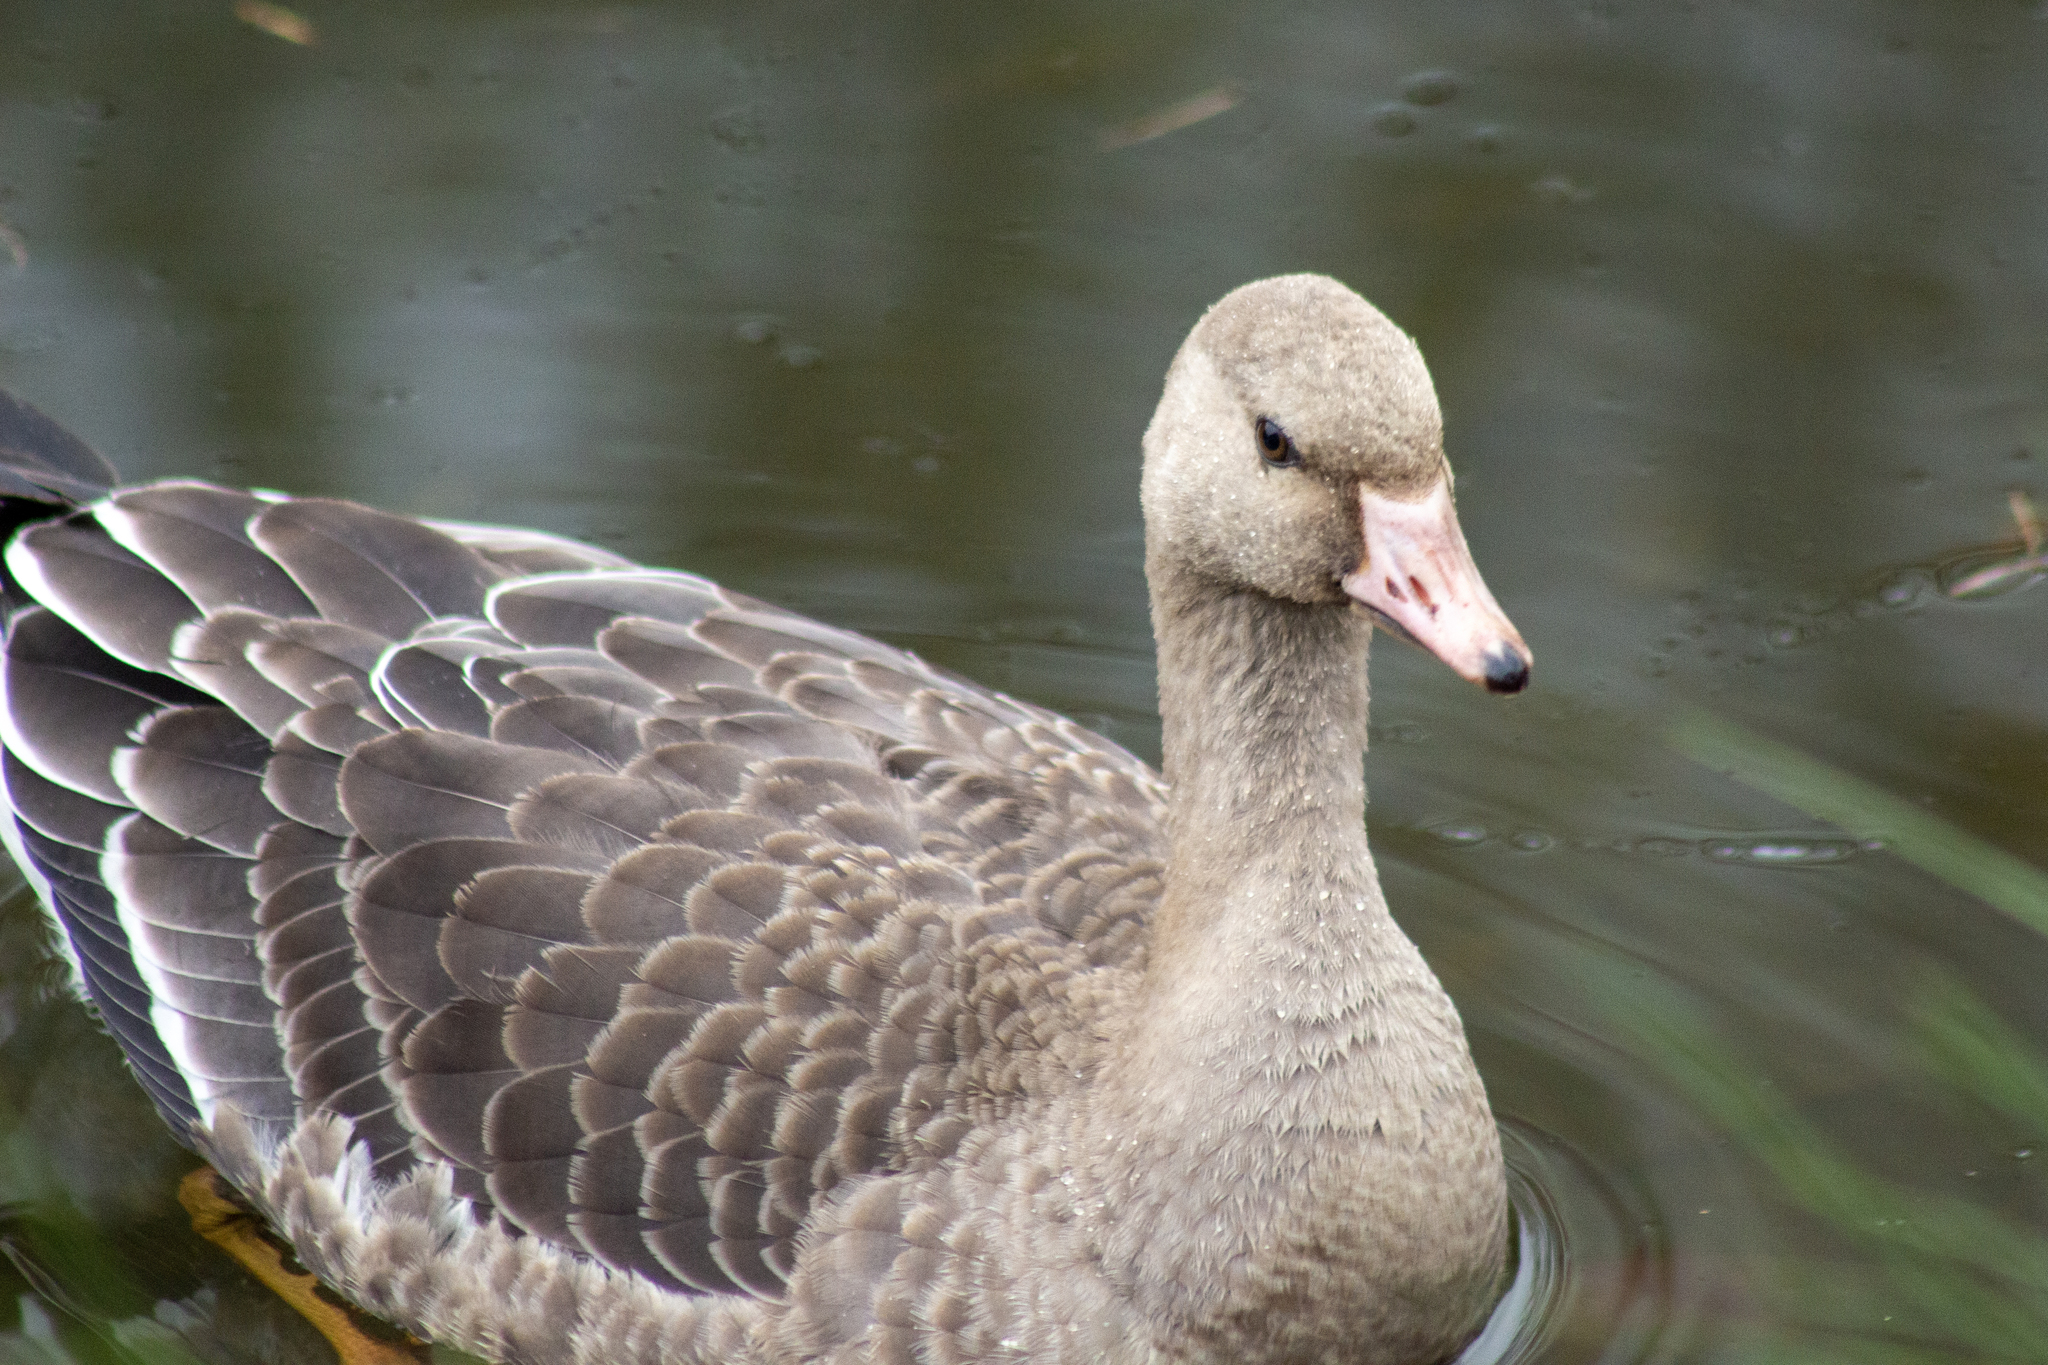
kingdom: Animalia
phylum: Chordata
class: Aves
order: Anseriformes
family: Anatidae
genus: Anser
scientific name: Anser albifrons
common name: Greater white-fronted goose
